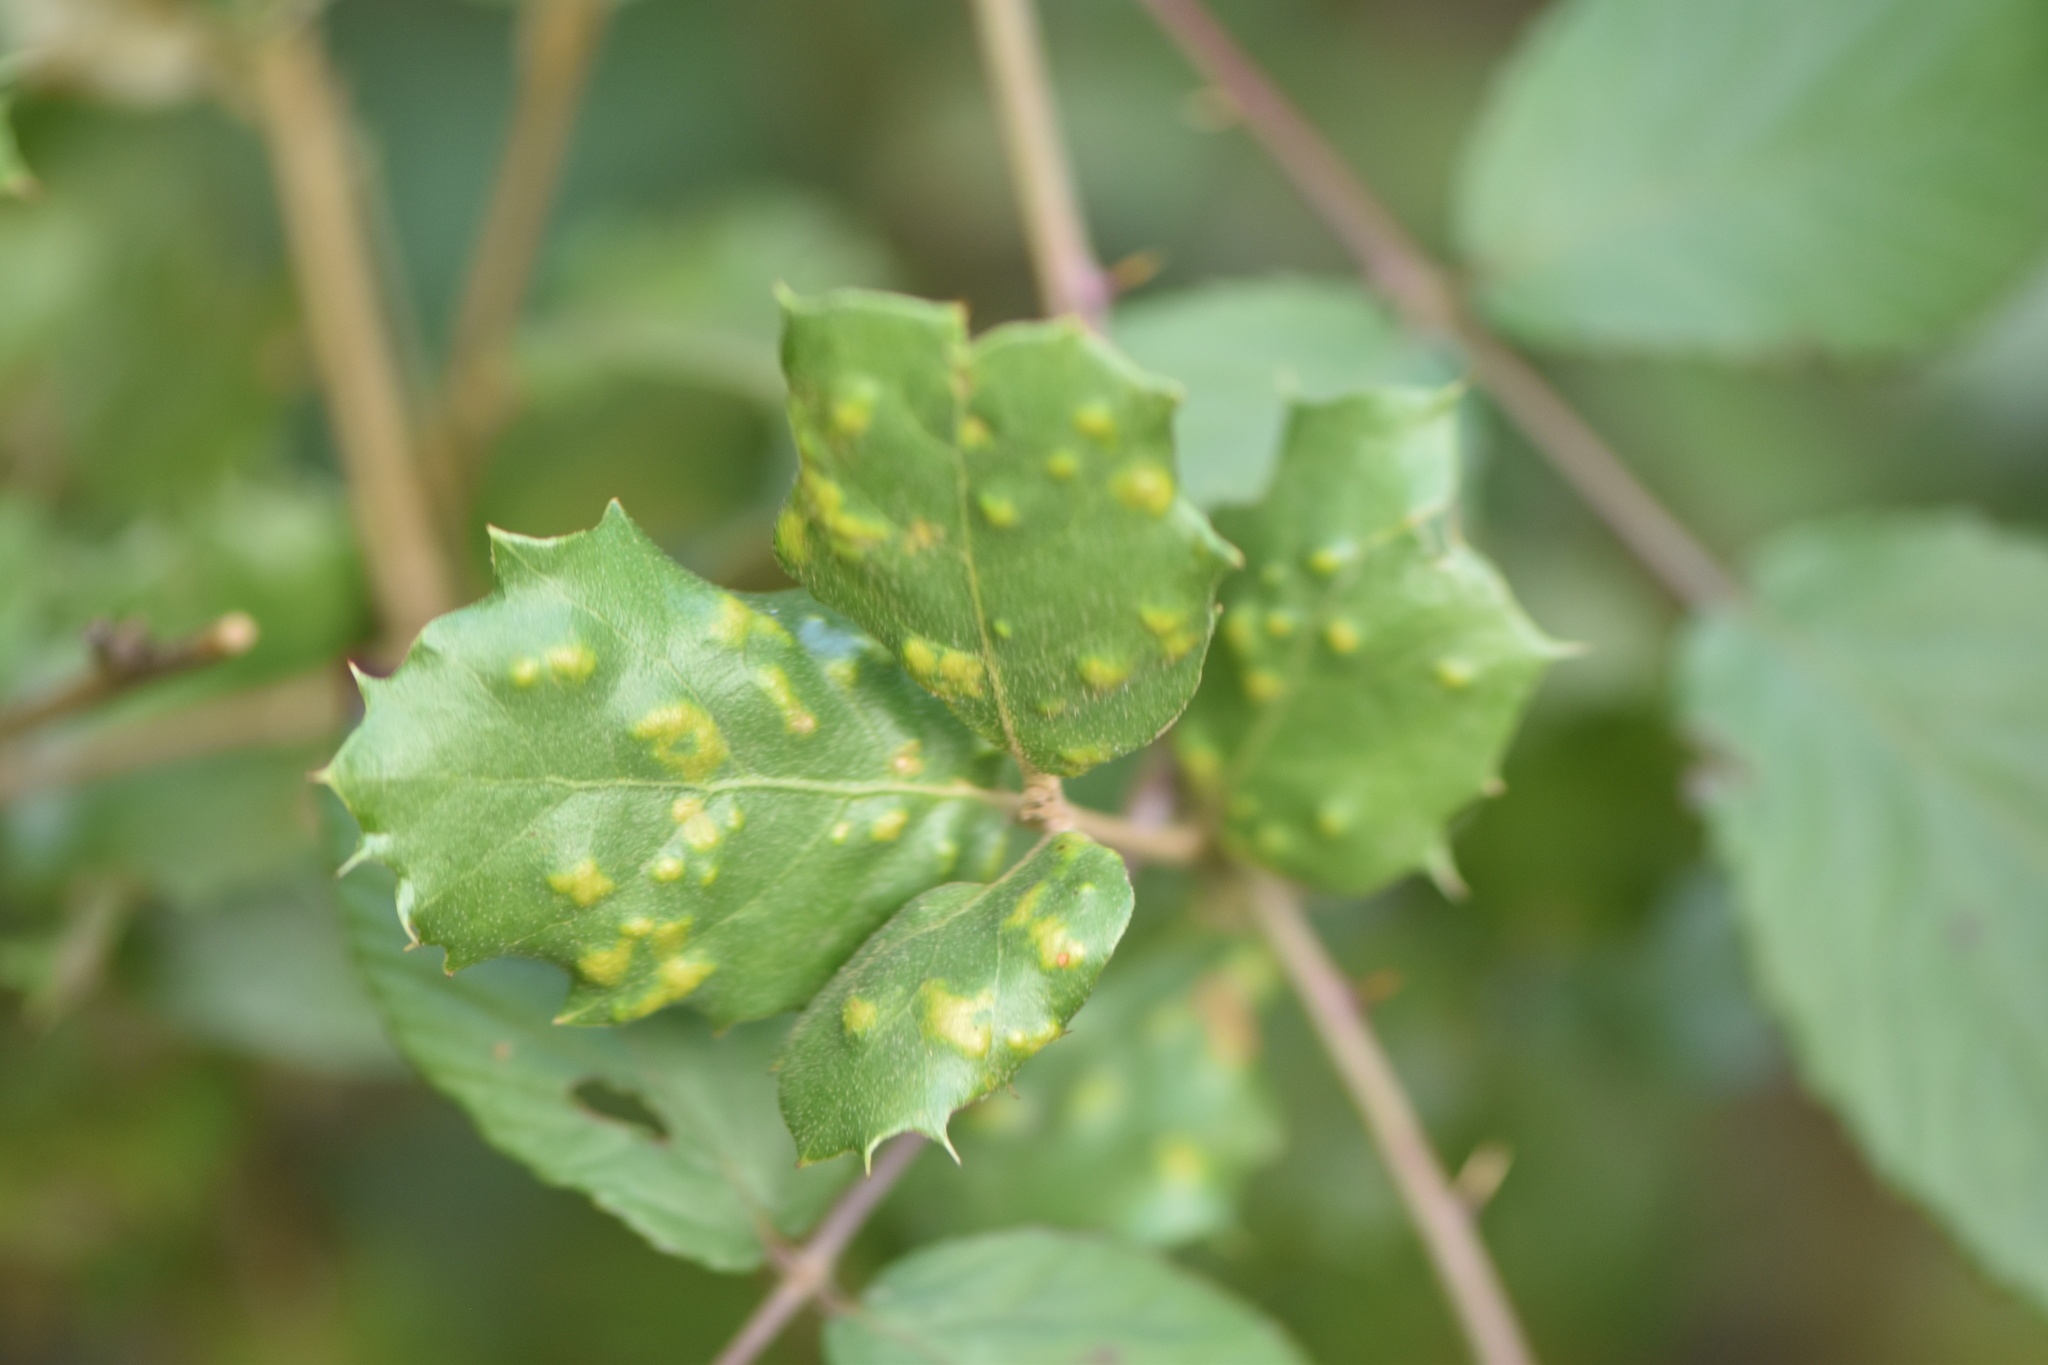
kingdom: Animalia
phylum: Arthropoda
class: Arachnida
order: Trombidiformes
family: Eriophyidae
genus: Aceria
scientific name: Aceria ilicis
